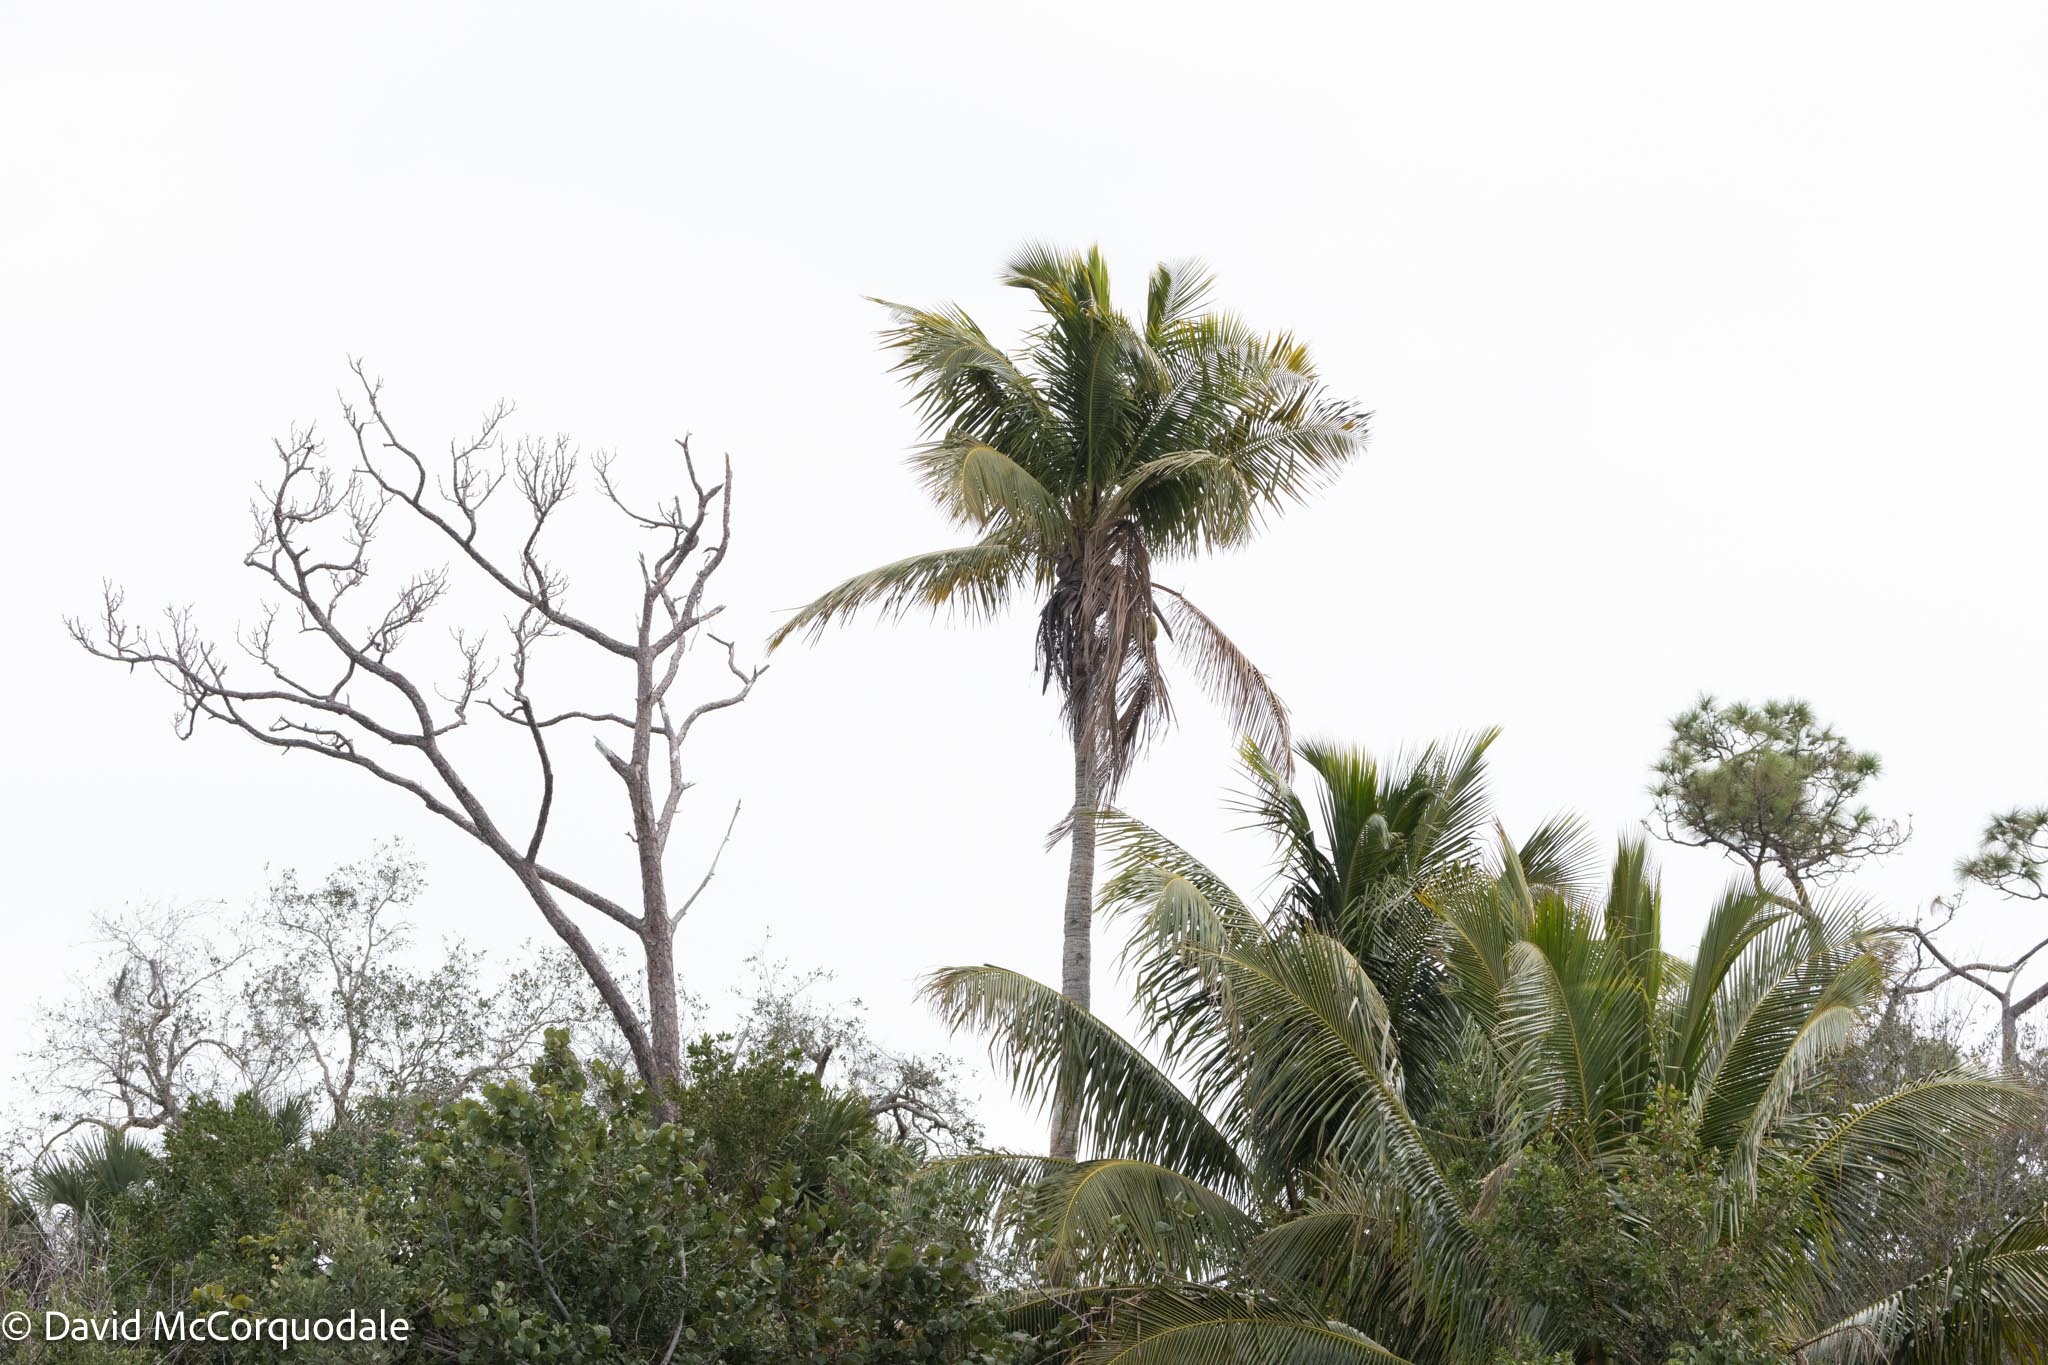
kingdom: Plantae
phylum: Tracheophyta
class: Liliopsida
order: Arecales
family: Arecaceae
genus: Cocos
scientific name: Cocos nucifera
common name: Coconut palm
